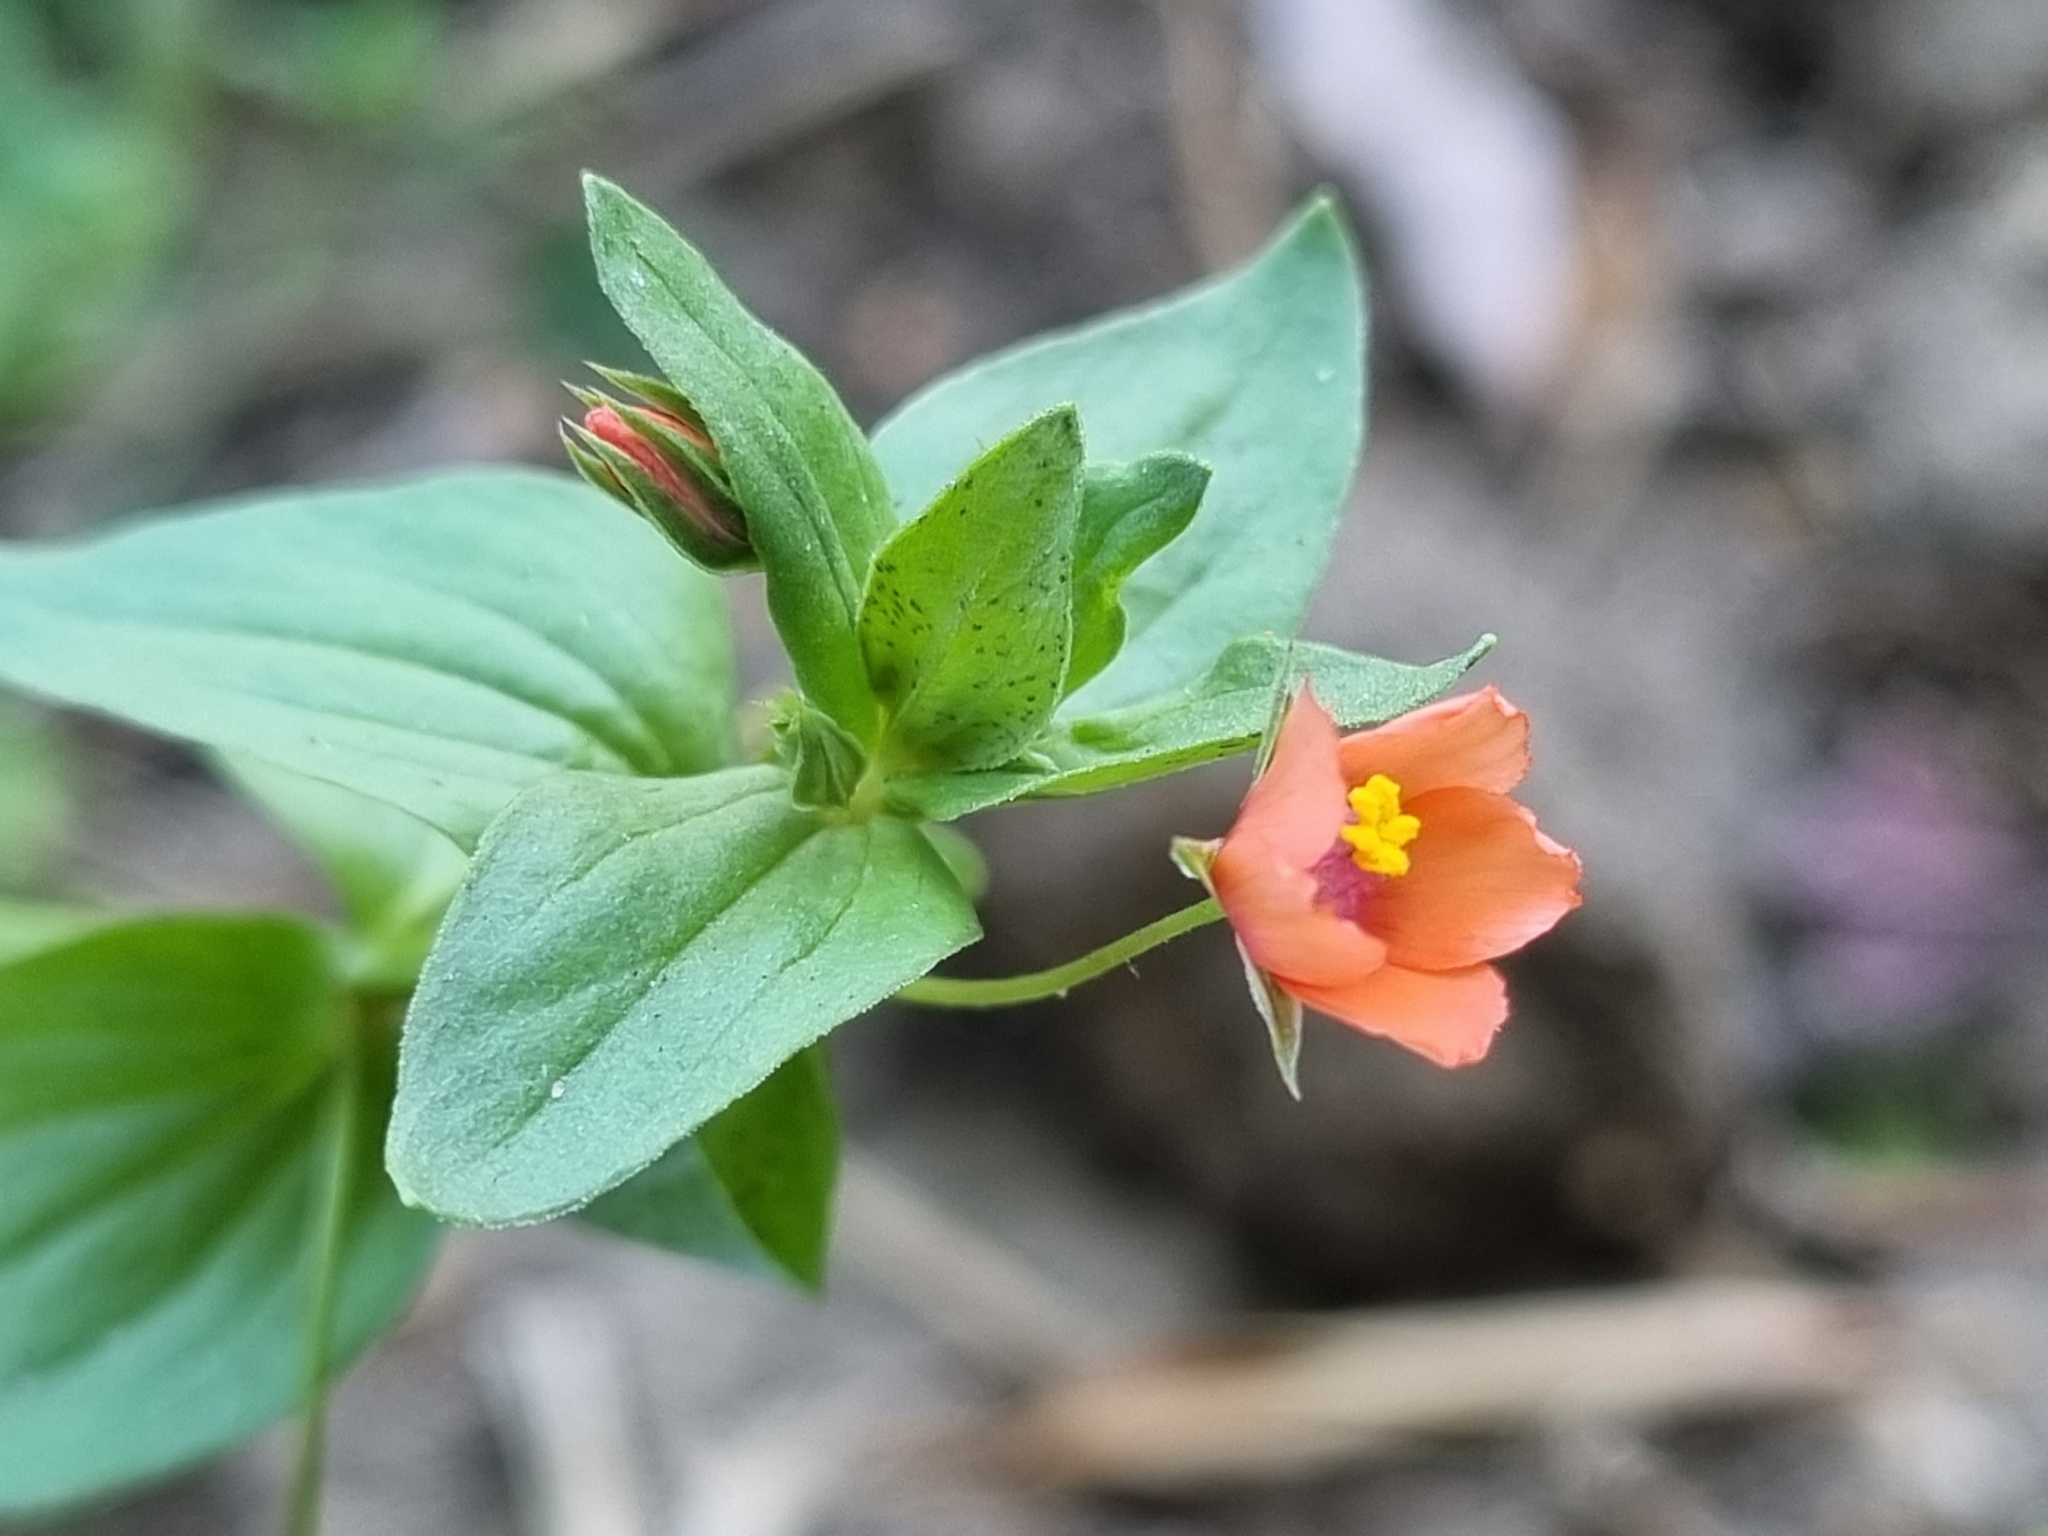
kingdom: Plantae
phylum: Tracheophyta
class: Magnoliopsida
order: Ericales
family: Primulaceae
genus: Lysimachia
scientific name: Lysimachia arvensis
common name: Scarlet pimpernel
